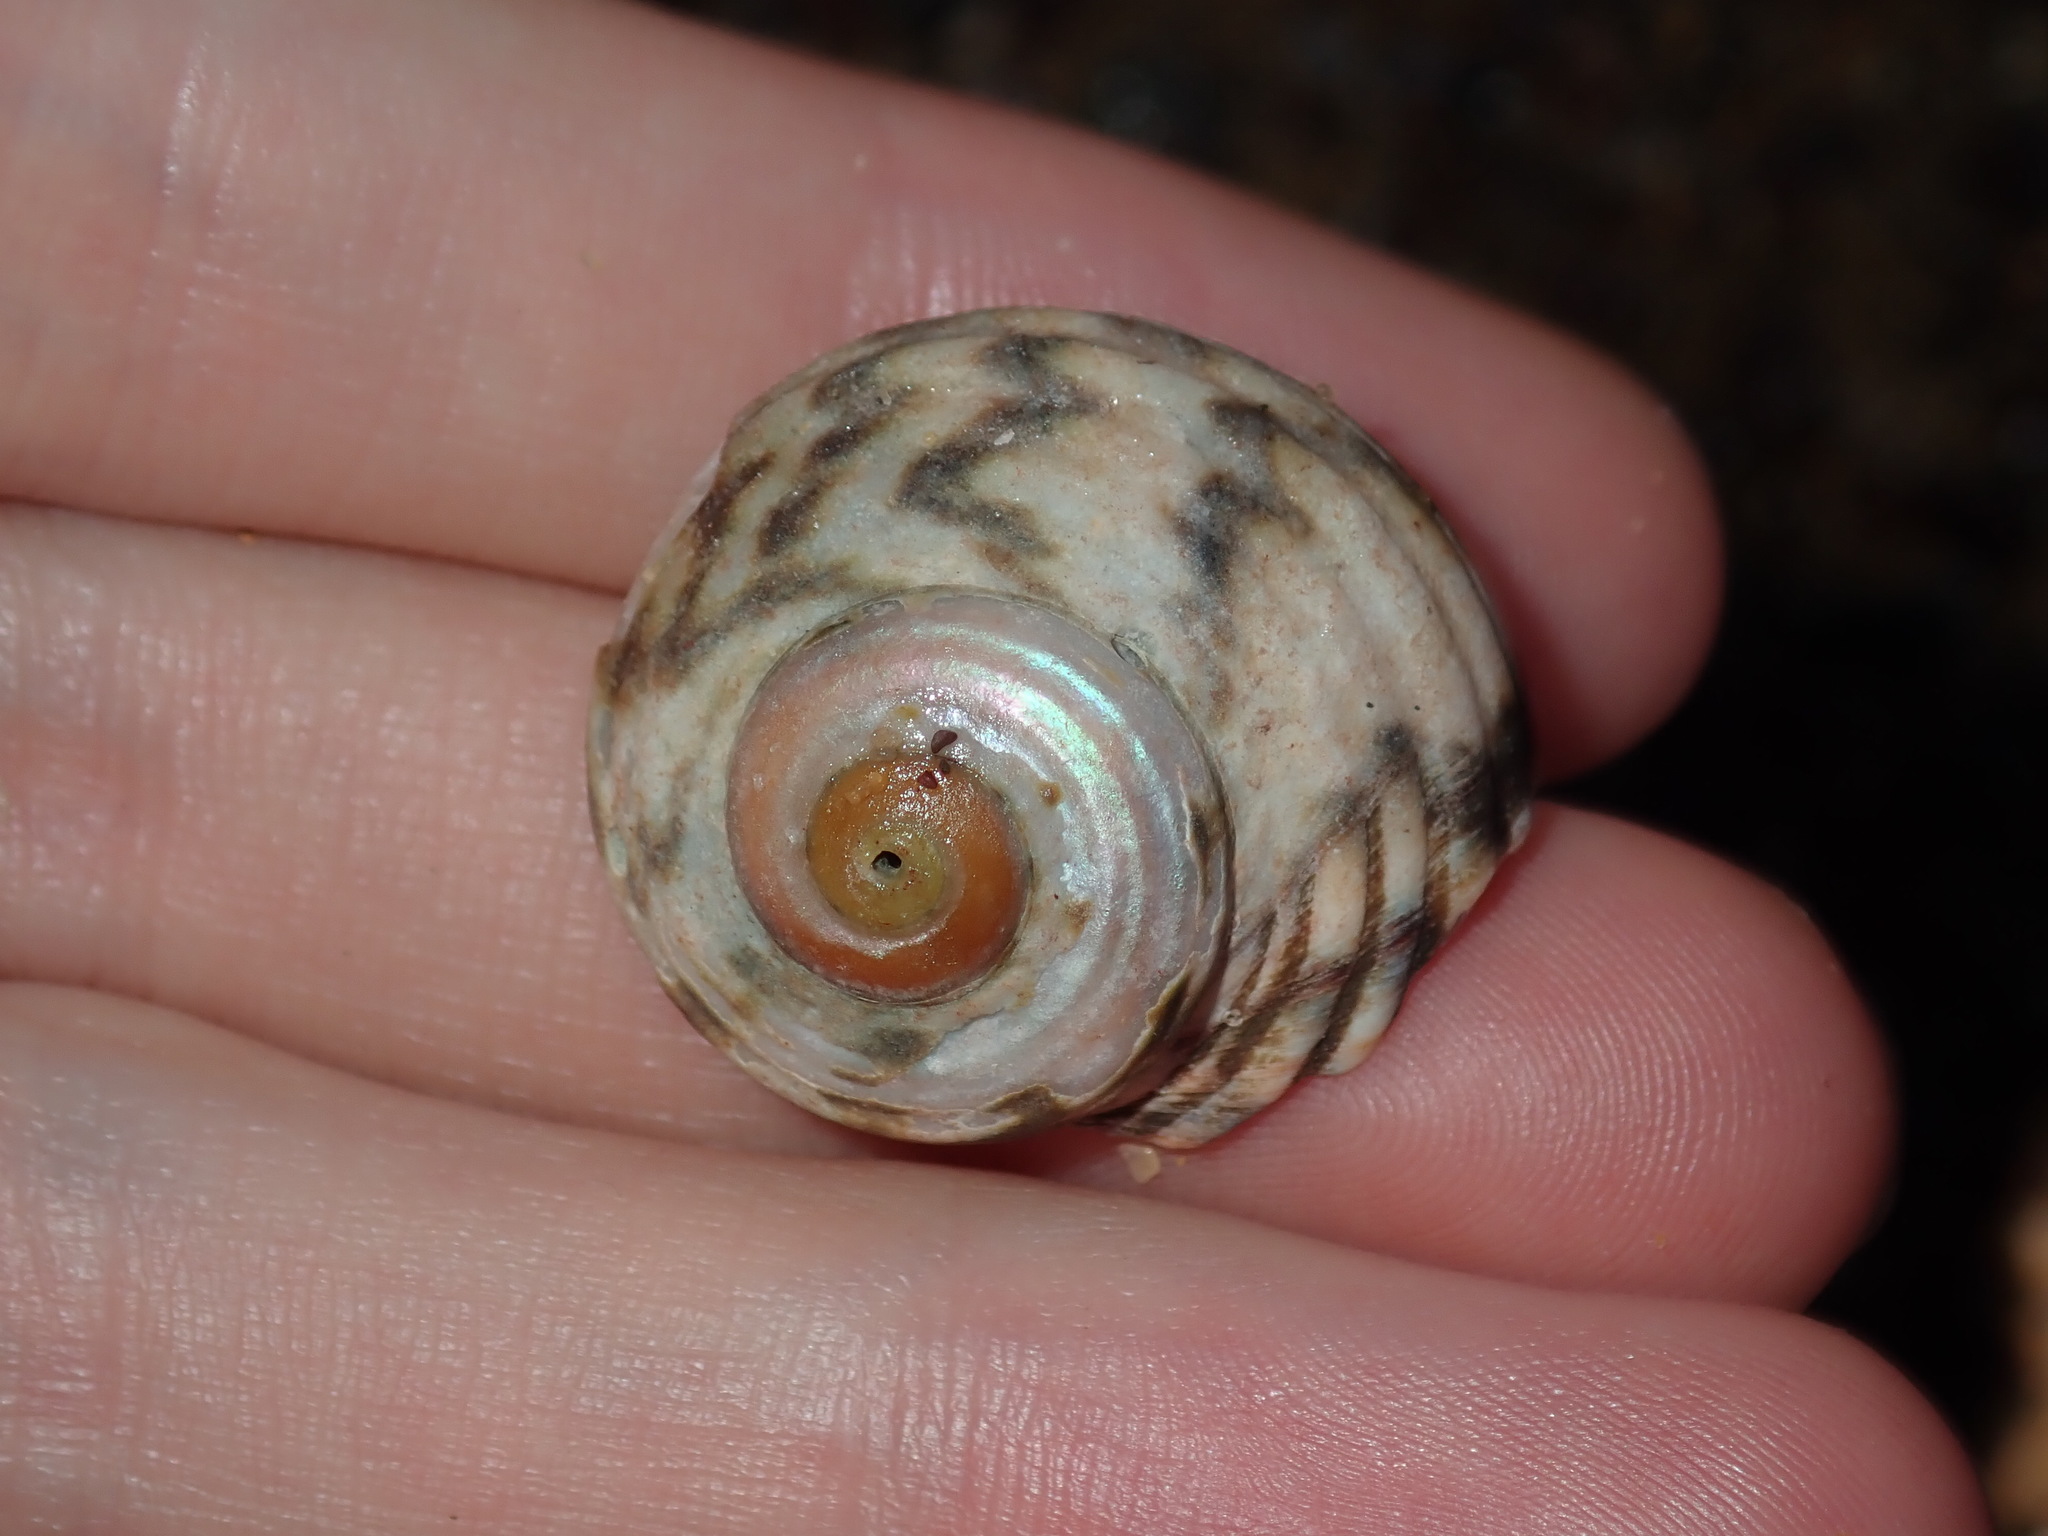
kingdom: Animalia
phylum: Mollusca
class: Gastropoda
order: Trochida
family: Turbinidae
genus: Lunella
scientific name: Lunella undulata
